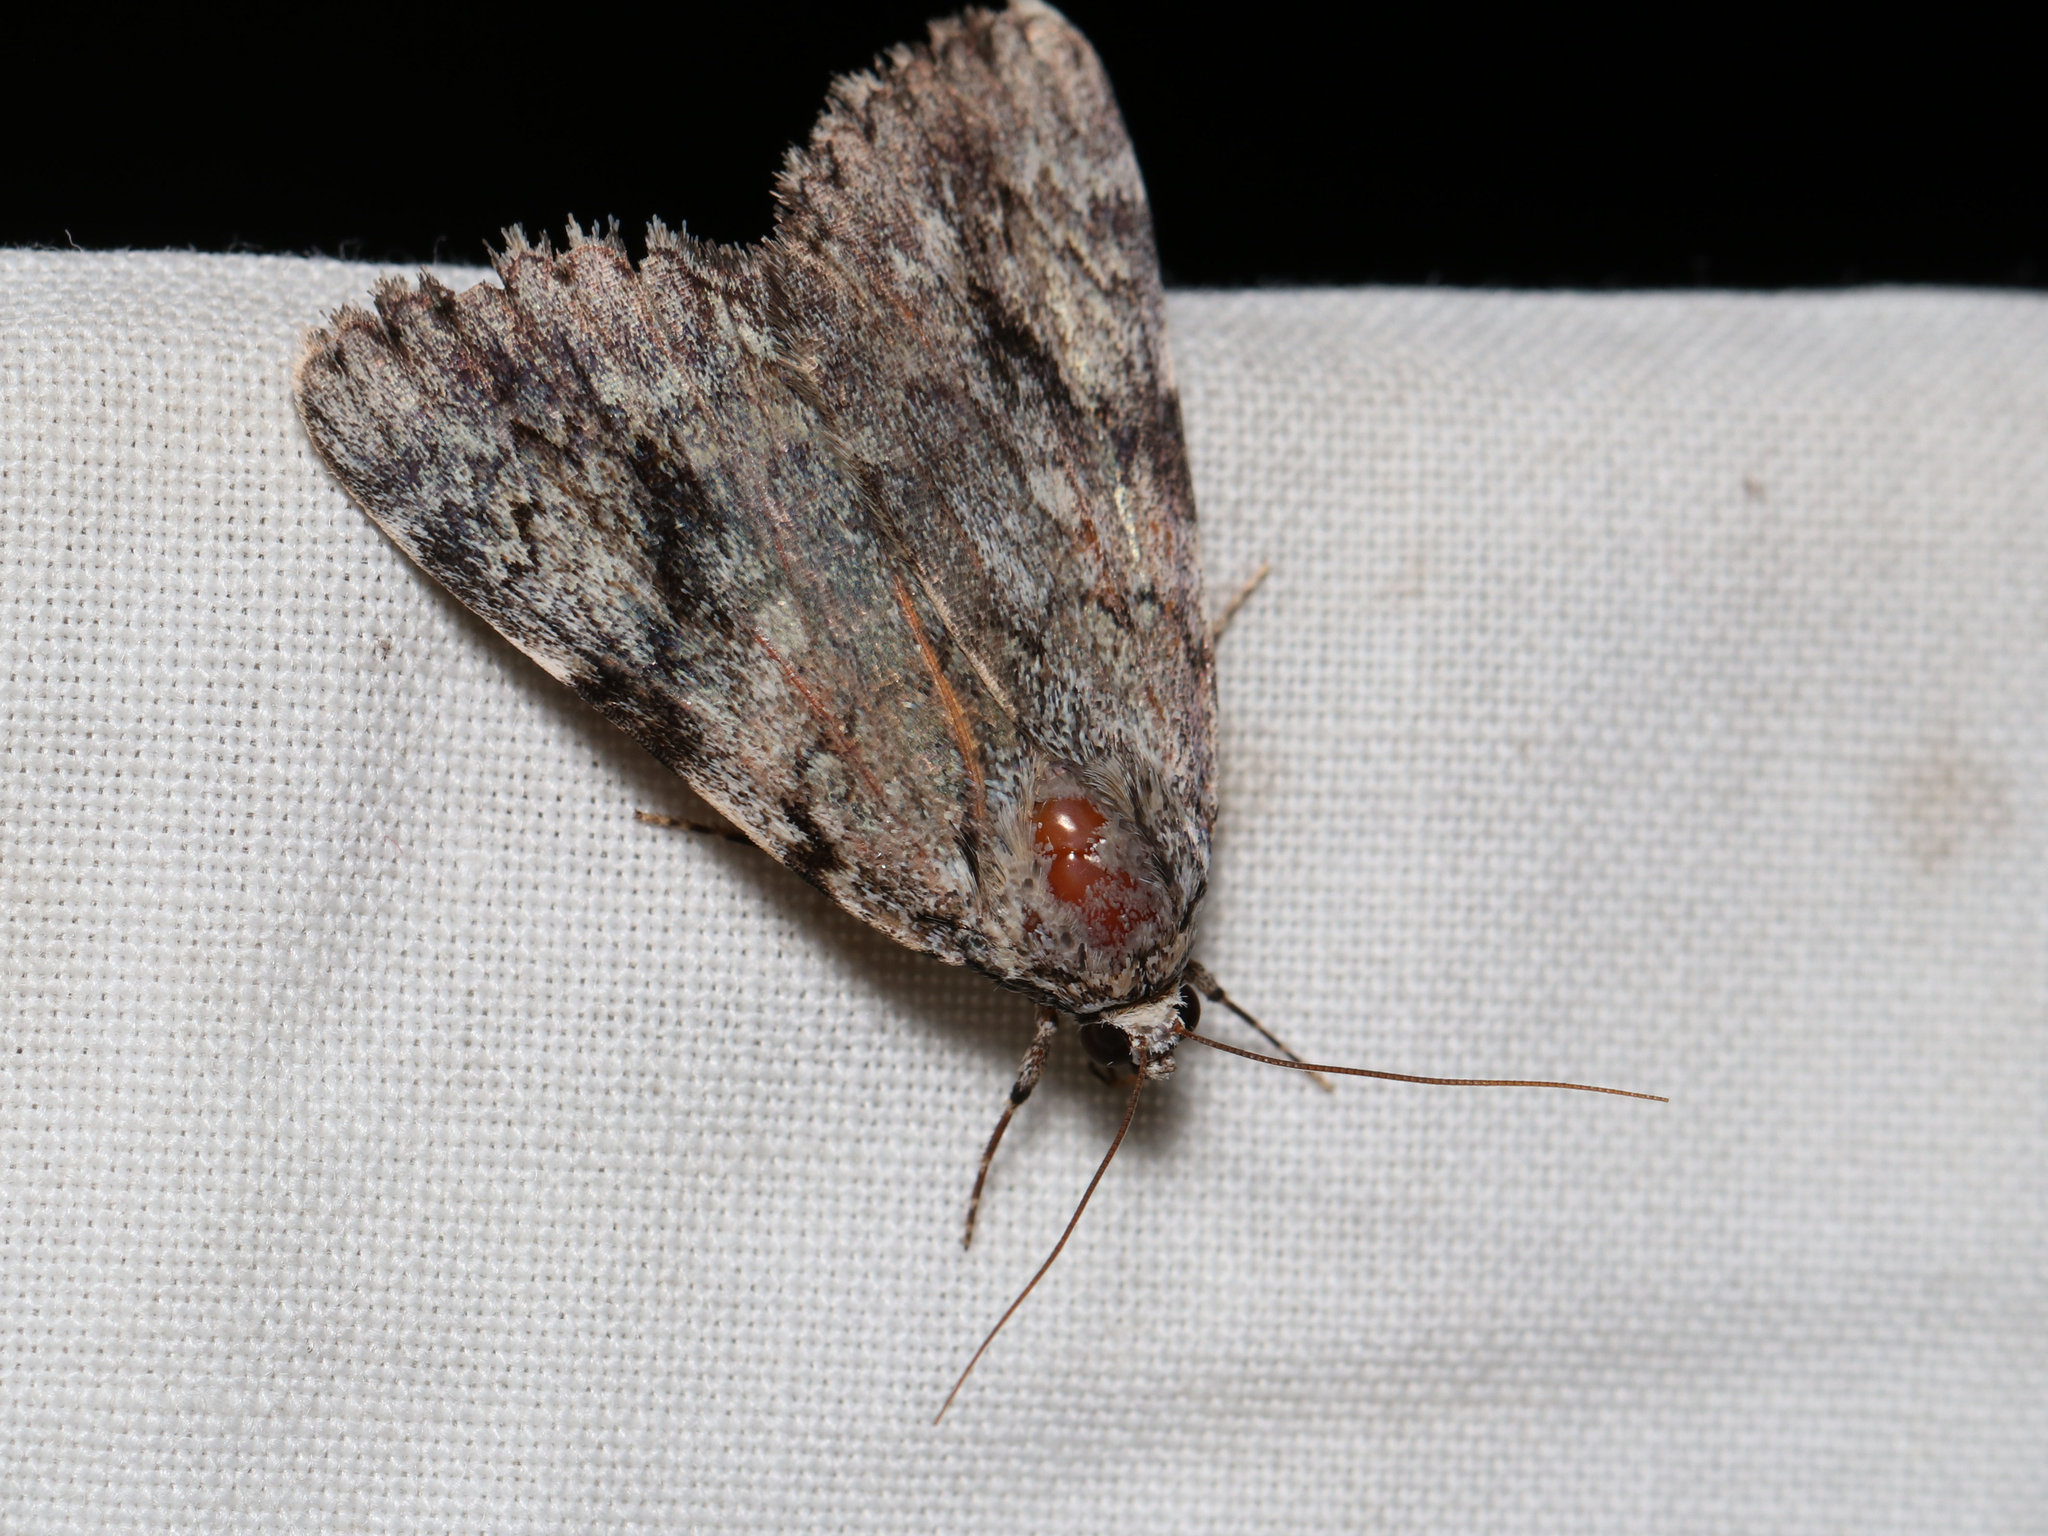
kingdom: Animalia
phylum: Arthropoda
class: Insecta
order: Lepidoptera
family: Erebidae
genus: Catocala
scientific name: Catocala amica
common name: Girlfriend underwing
